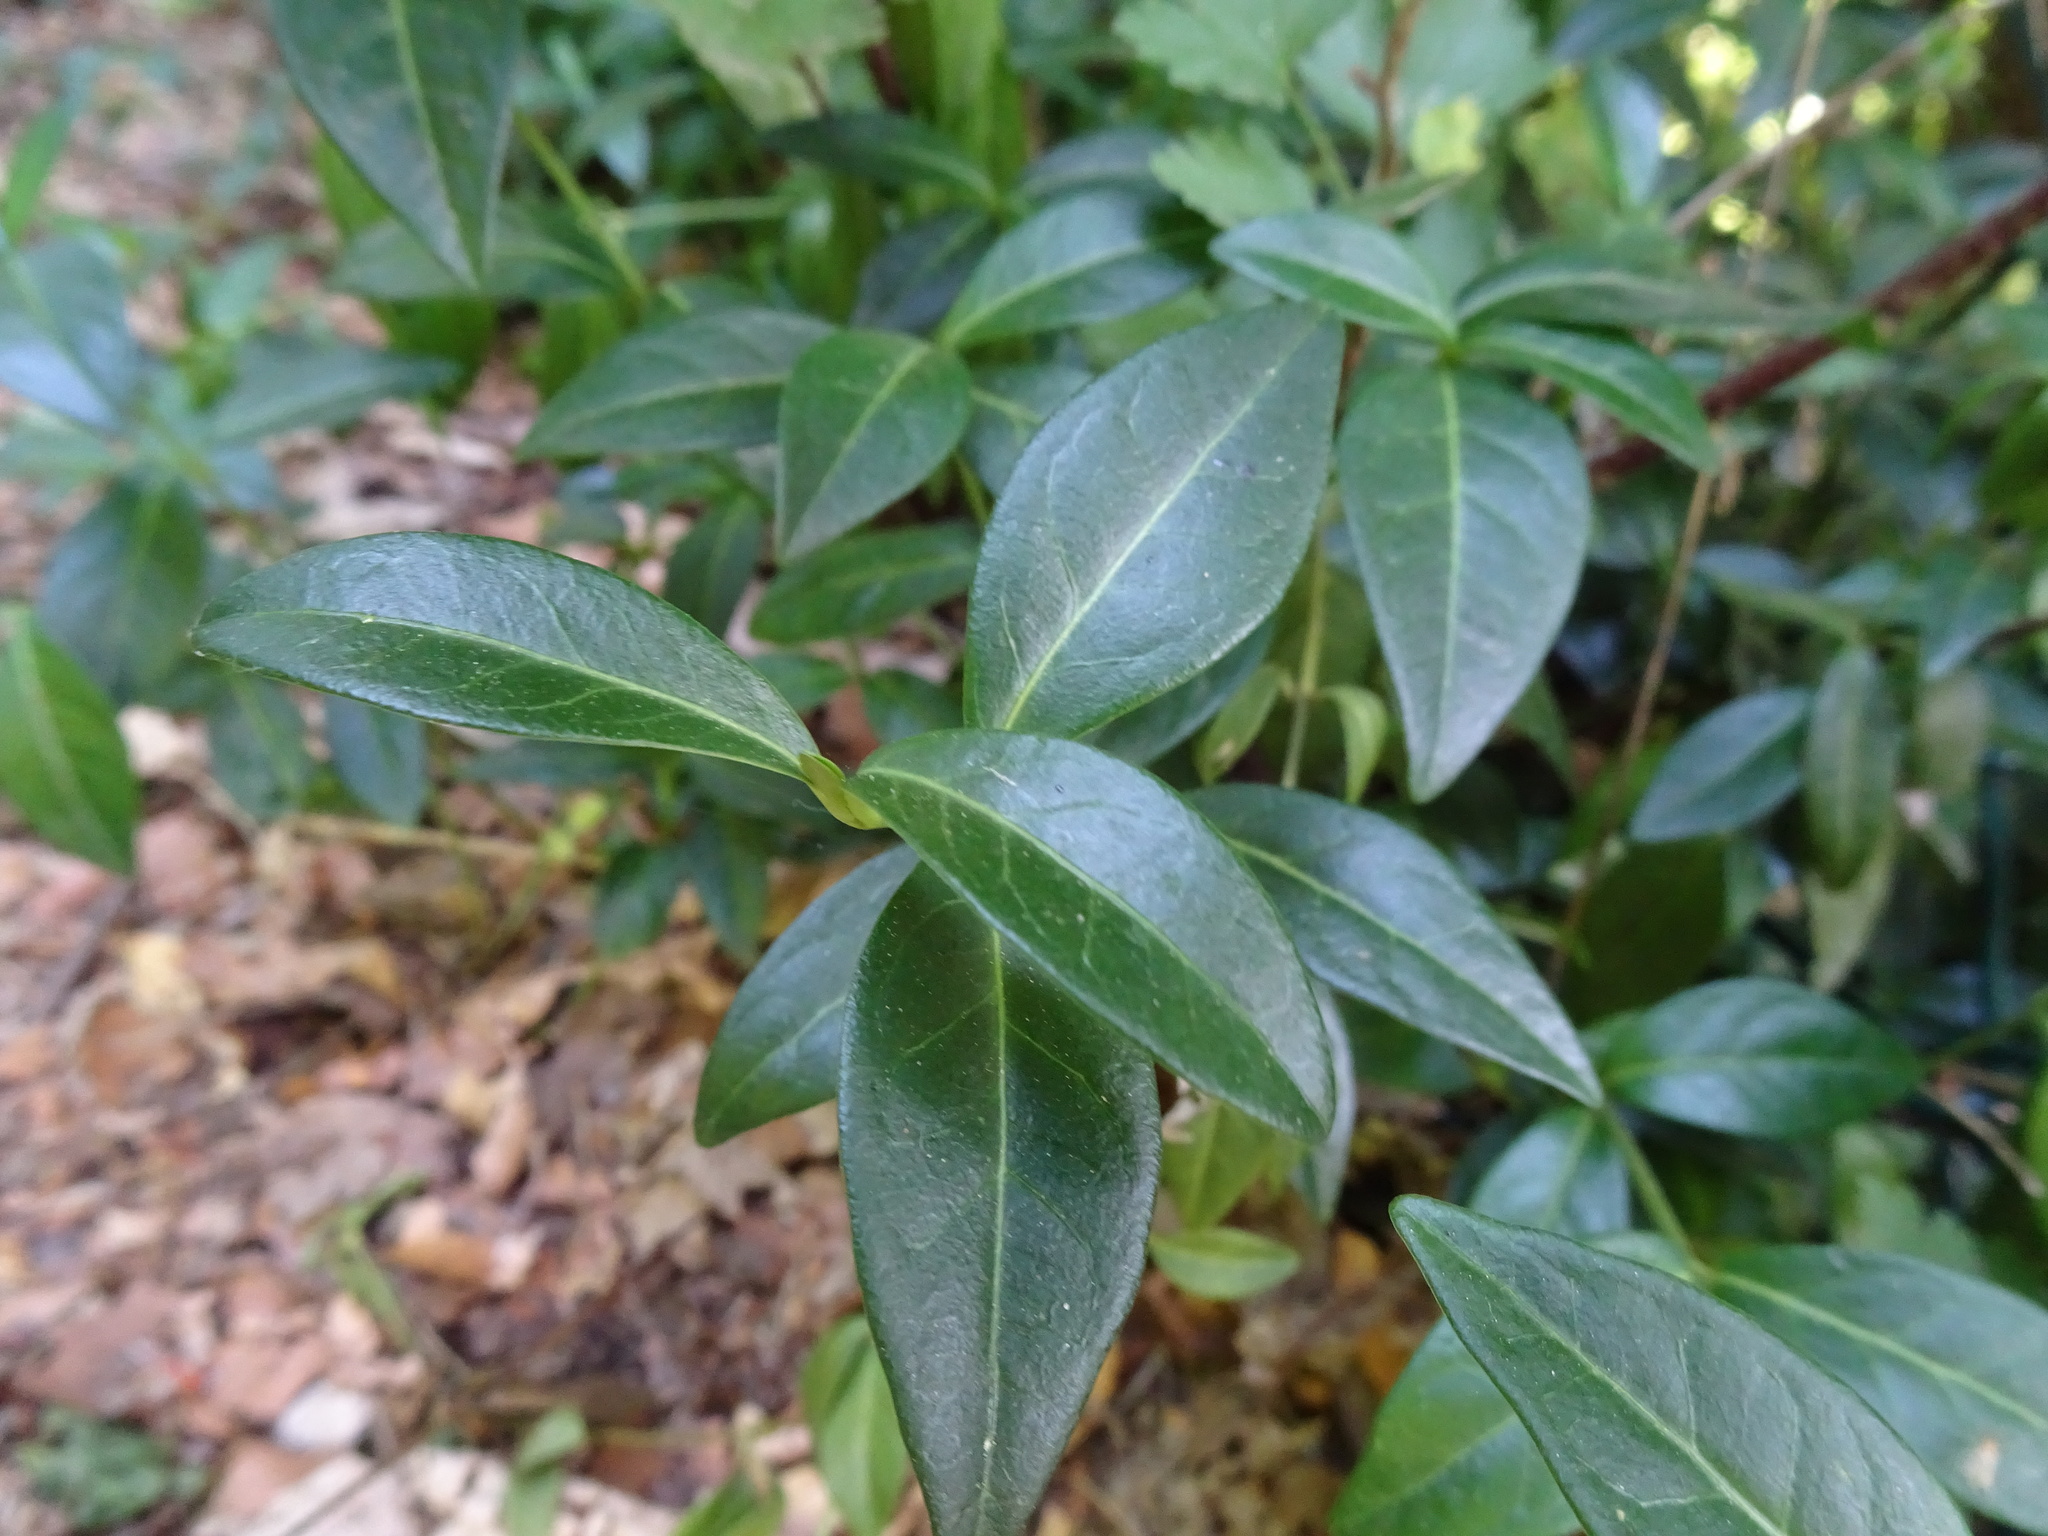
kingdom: Plantae
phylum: Tracheophyta
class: Magnoliopsida
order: Gentianales
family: Apocynaceae
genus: Vinca
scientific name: Vinca minor
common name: Lesser periwinkle
